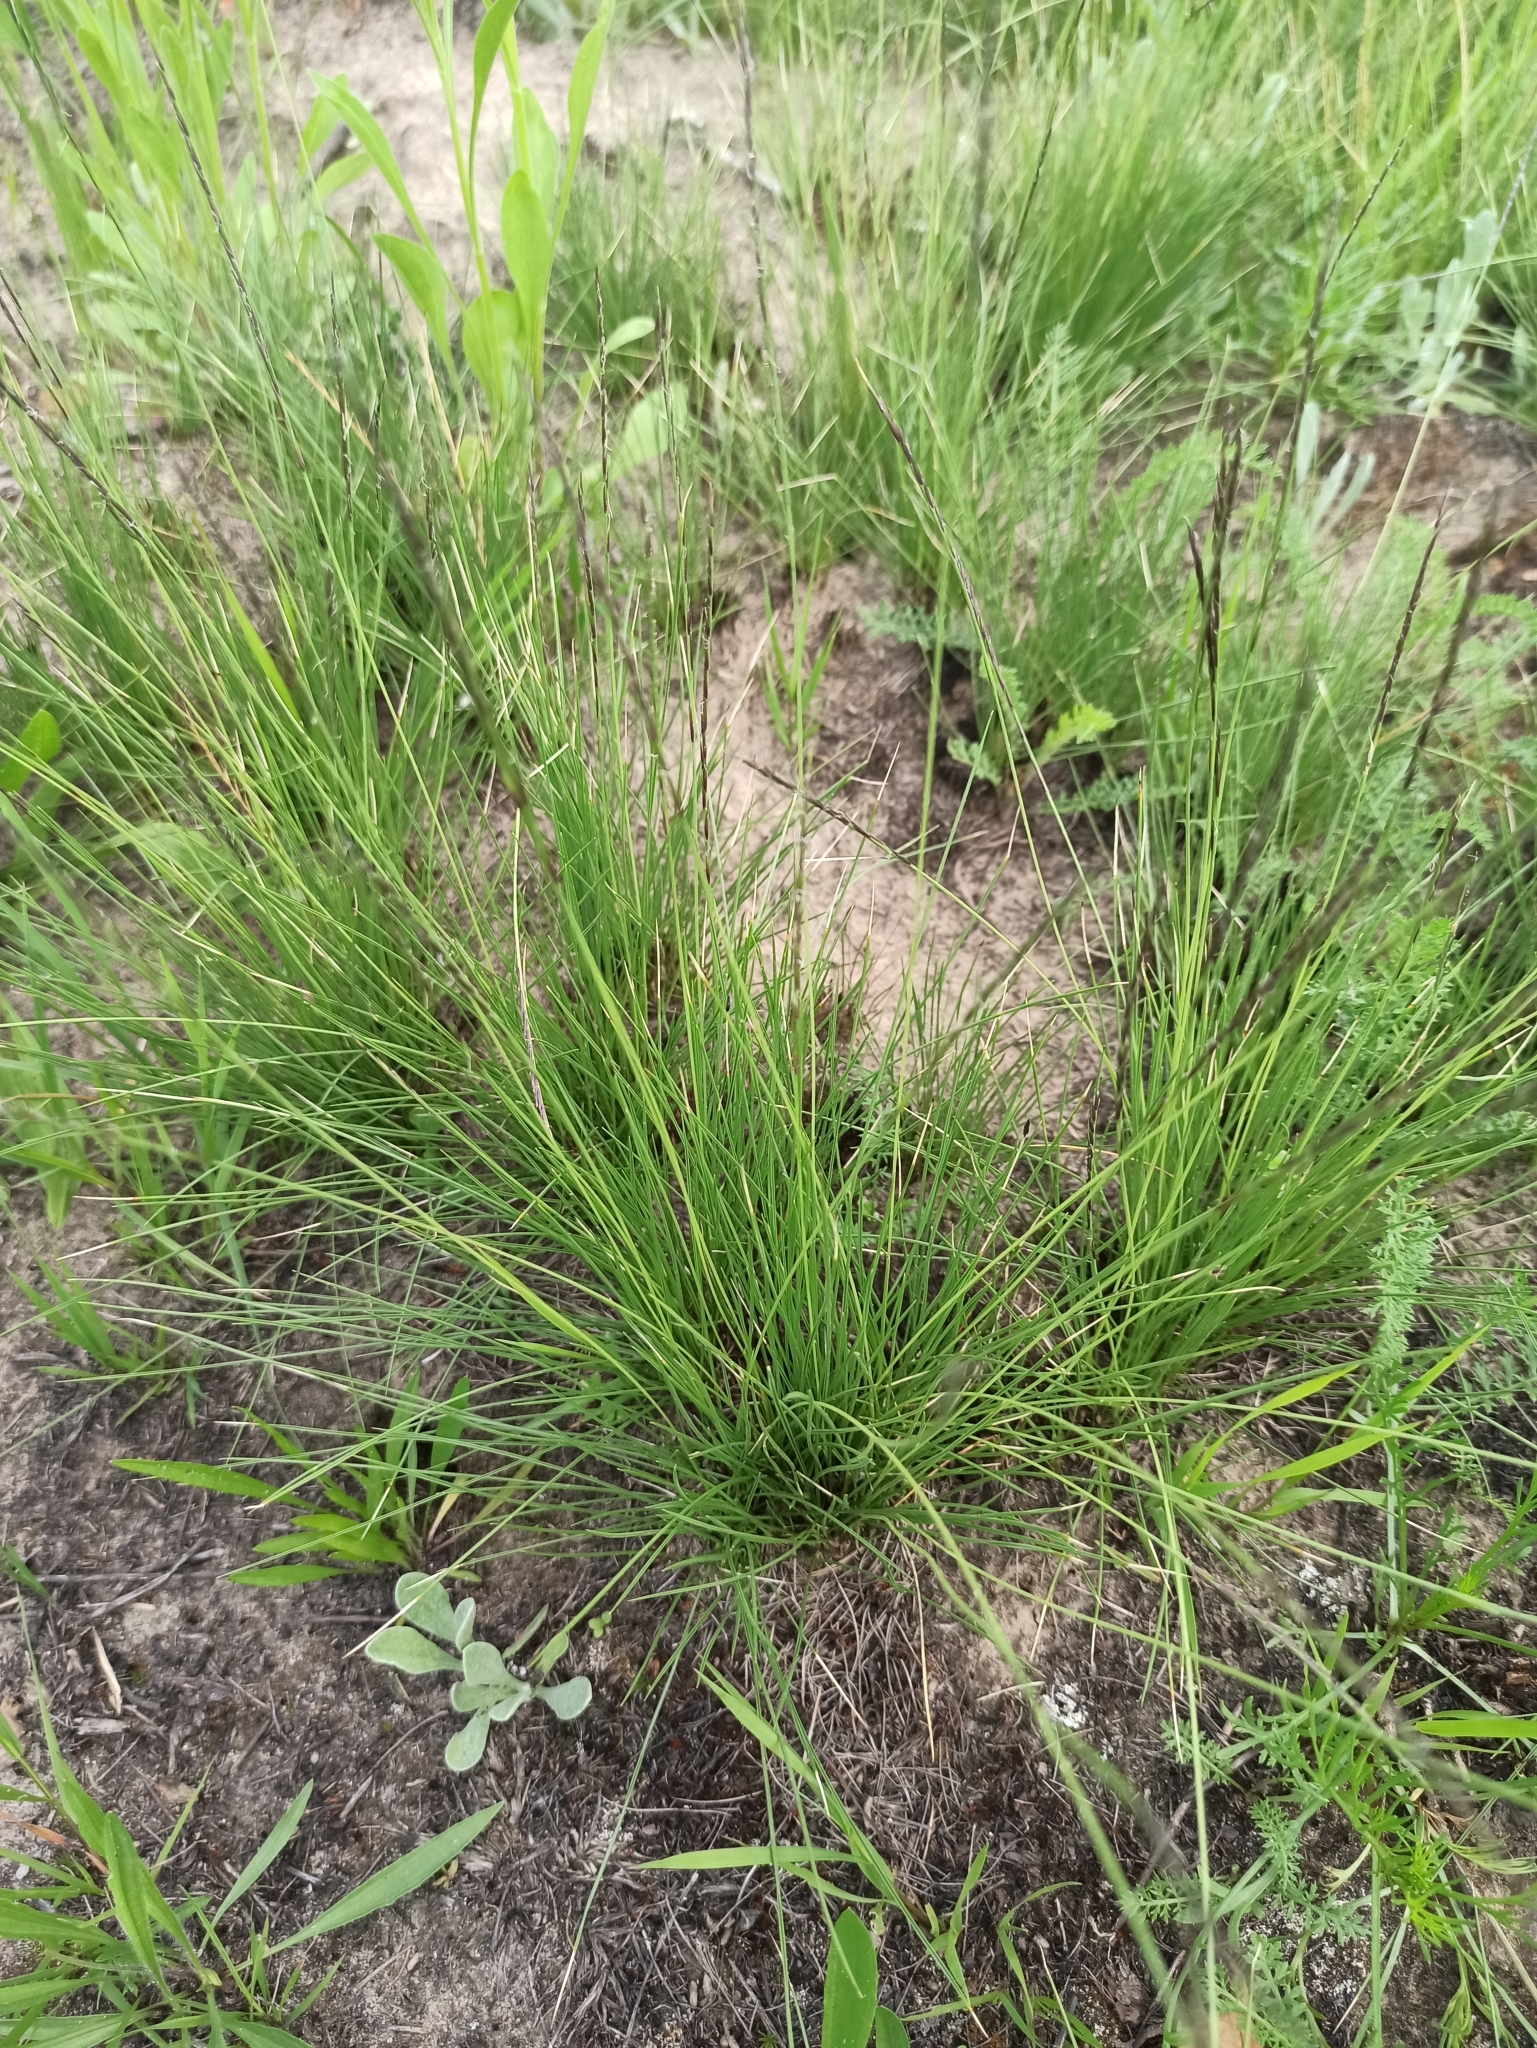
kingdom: Plantae
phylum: Tracheophyta
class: Liliopsida
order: Poales
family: Poaceae
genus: Nardus
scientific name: Nardus stricta
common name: Mat-grass
